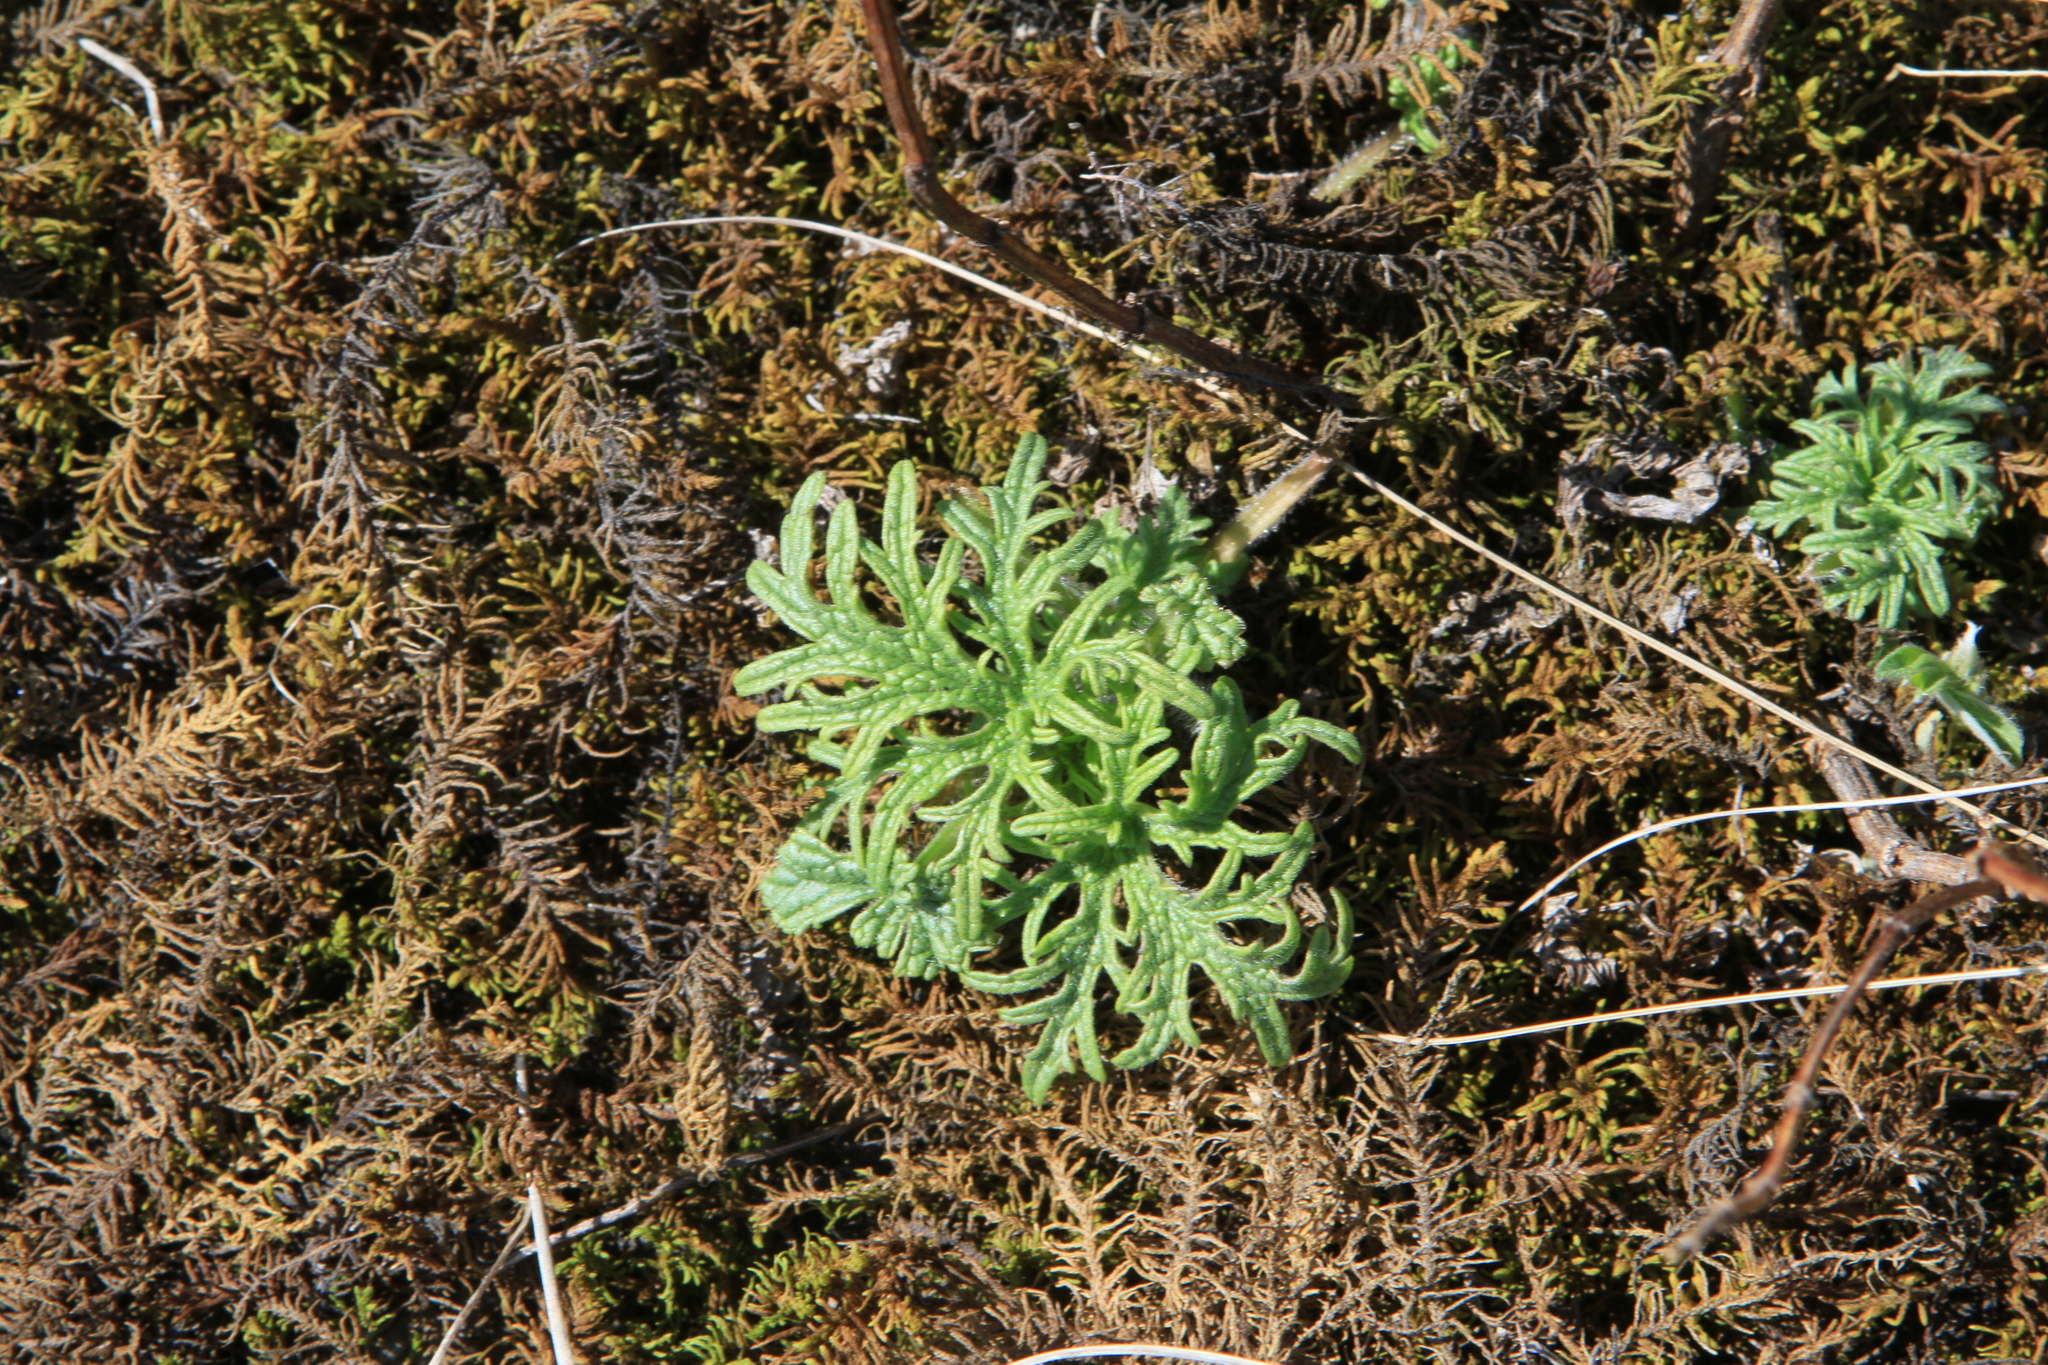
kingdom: Plantae
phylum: Tracheophyta
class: Magnoliopsida
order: Rosales
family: Urticaceae
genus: Urtica
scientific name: Urtica cannabina
